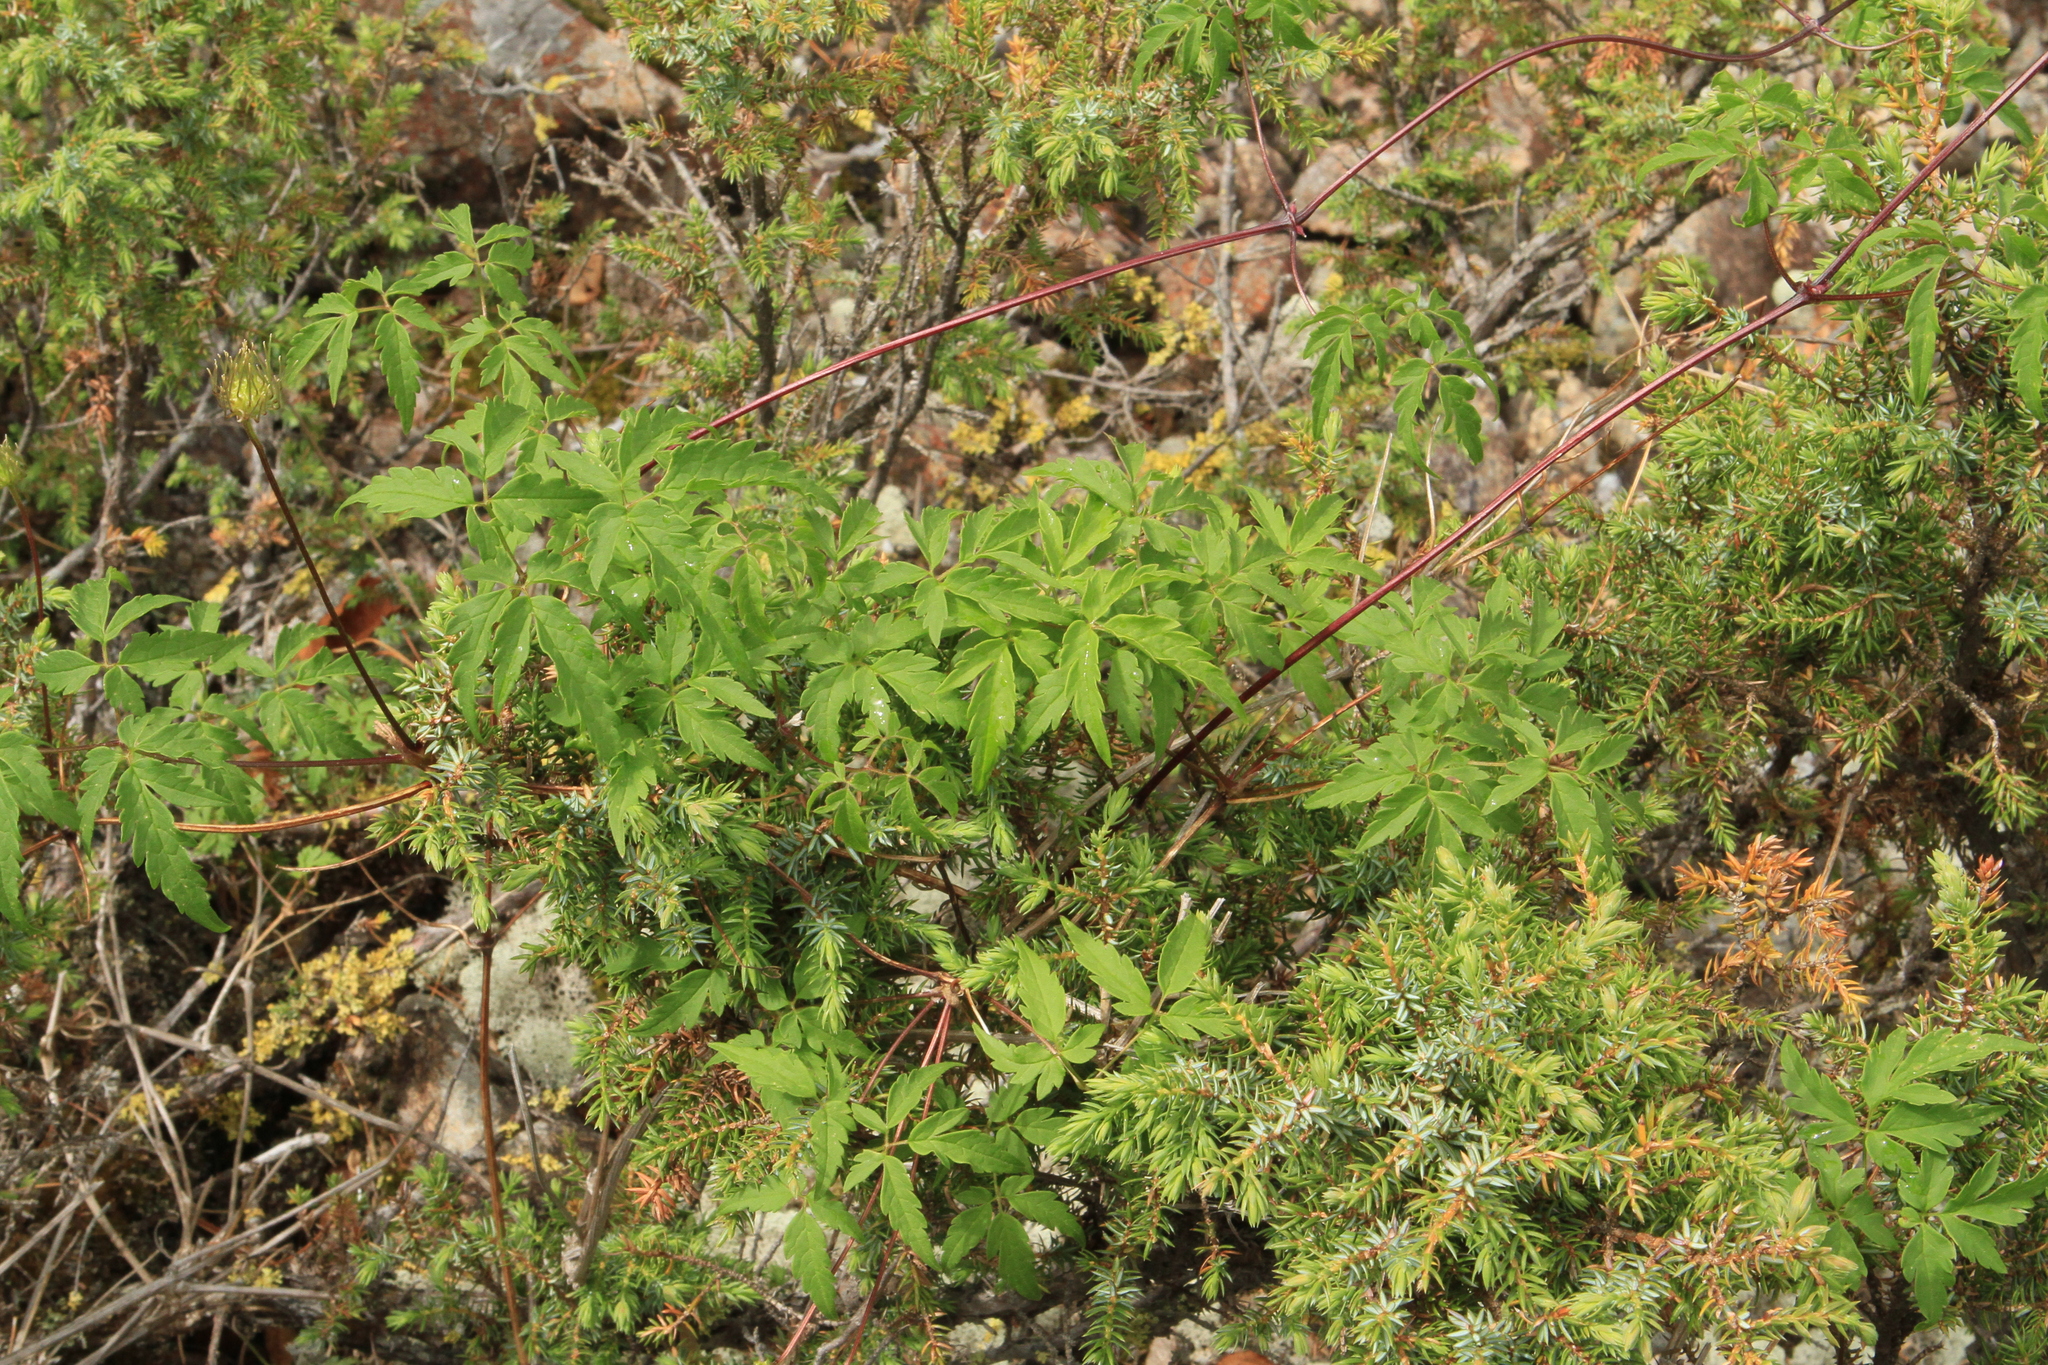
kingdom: Plantae
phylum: Tracheophyta
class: Magnoliopsida
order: Ranunculales
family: Ranunculaceae
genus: Clematis
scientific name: Clematis sibirica
